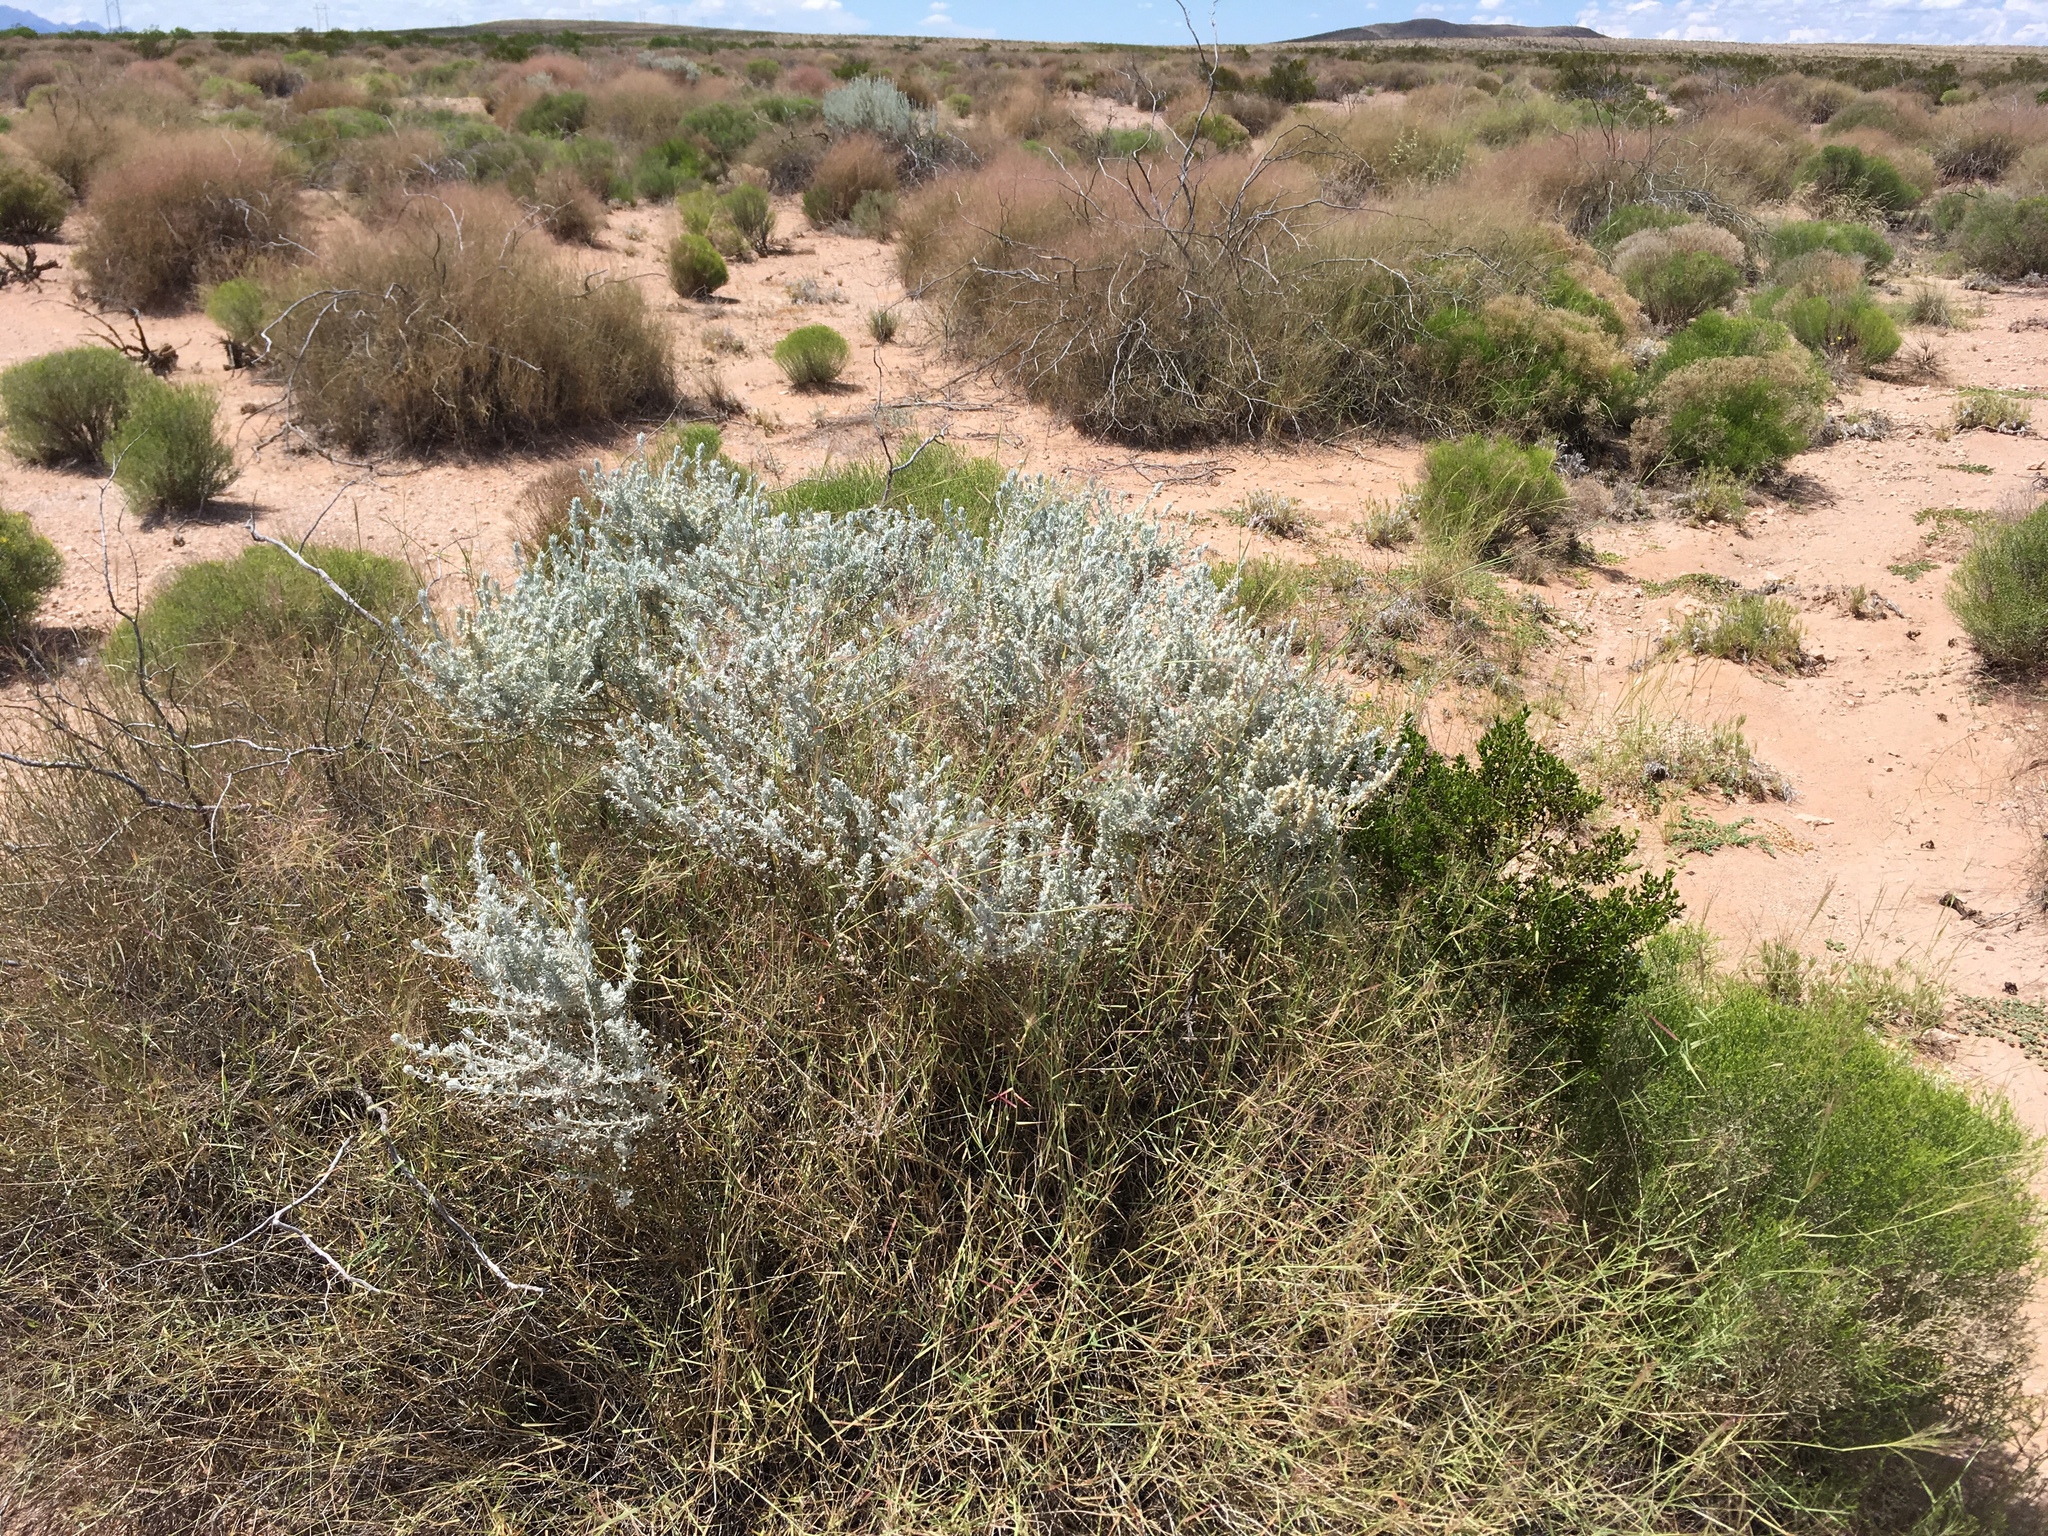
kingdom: Plantae
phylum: Tracheophyta
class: Magnoliopsida
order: Caryophyllales
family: Amaranthaceae
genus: Krascheninnikovia
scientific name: Krascheninnikovia lanata
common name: Winterfat
